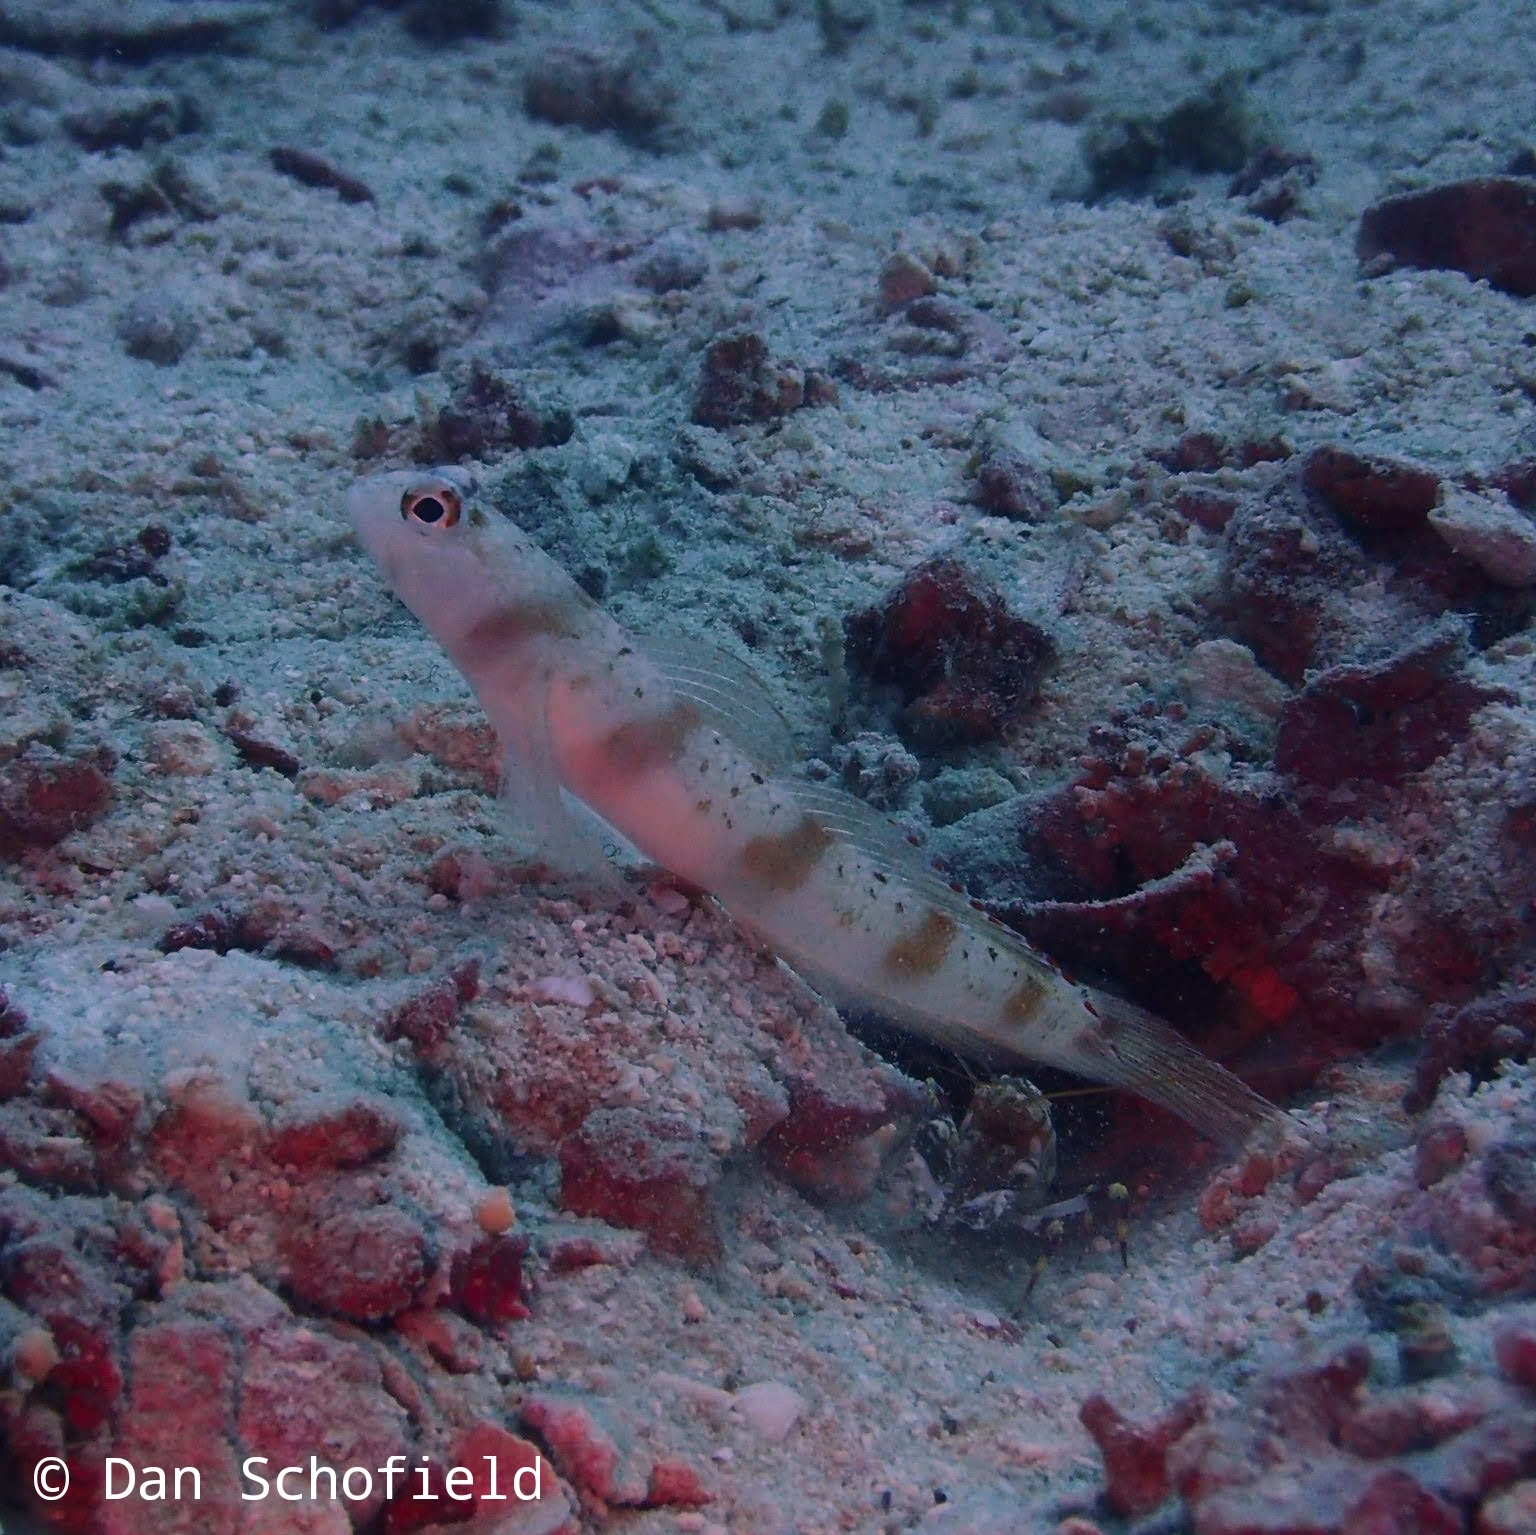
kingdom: Animalia
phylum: Chordata
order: Perciformes
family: Gobiidae
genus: Amblyeleotris
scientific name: Amblyeleotris rubrimarginata
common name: Redmargin shrimpgoby
